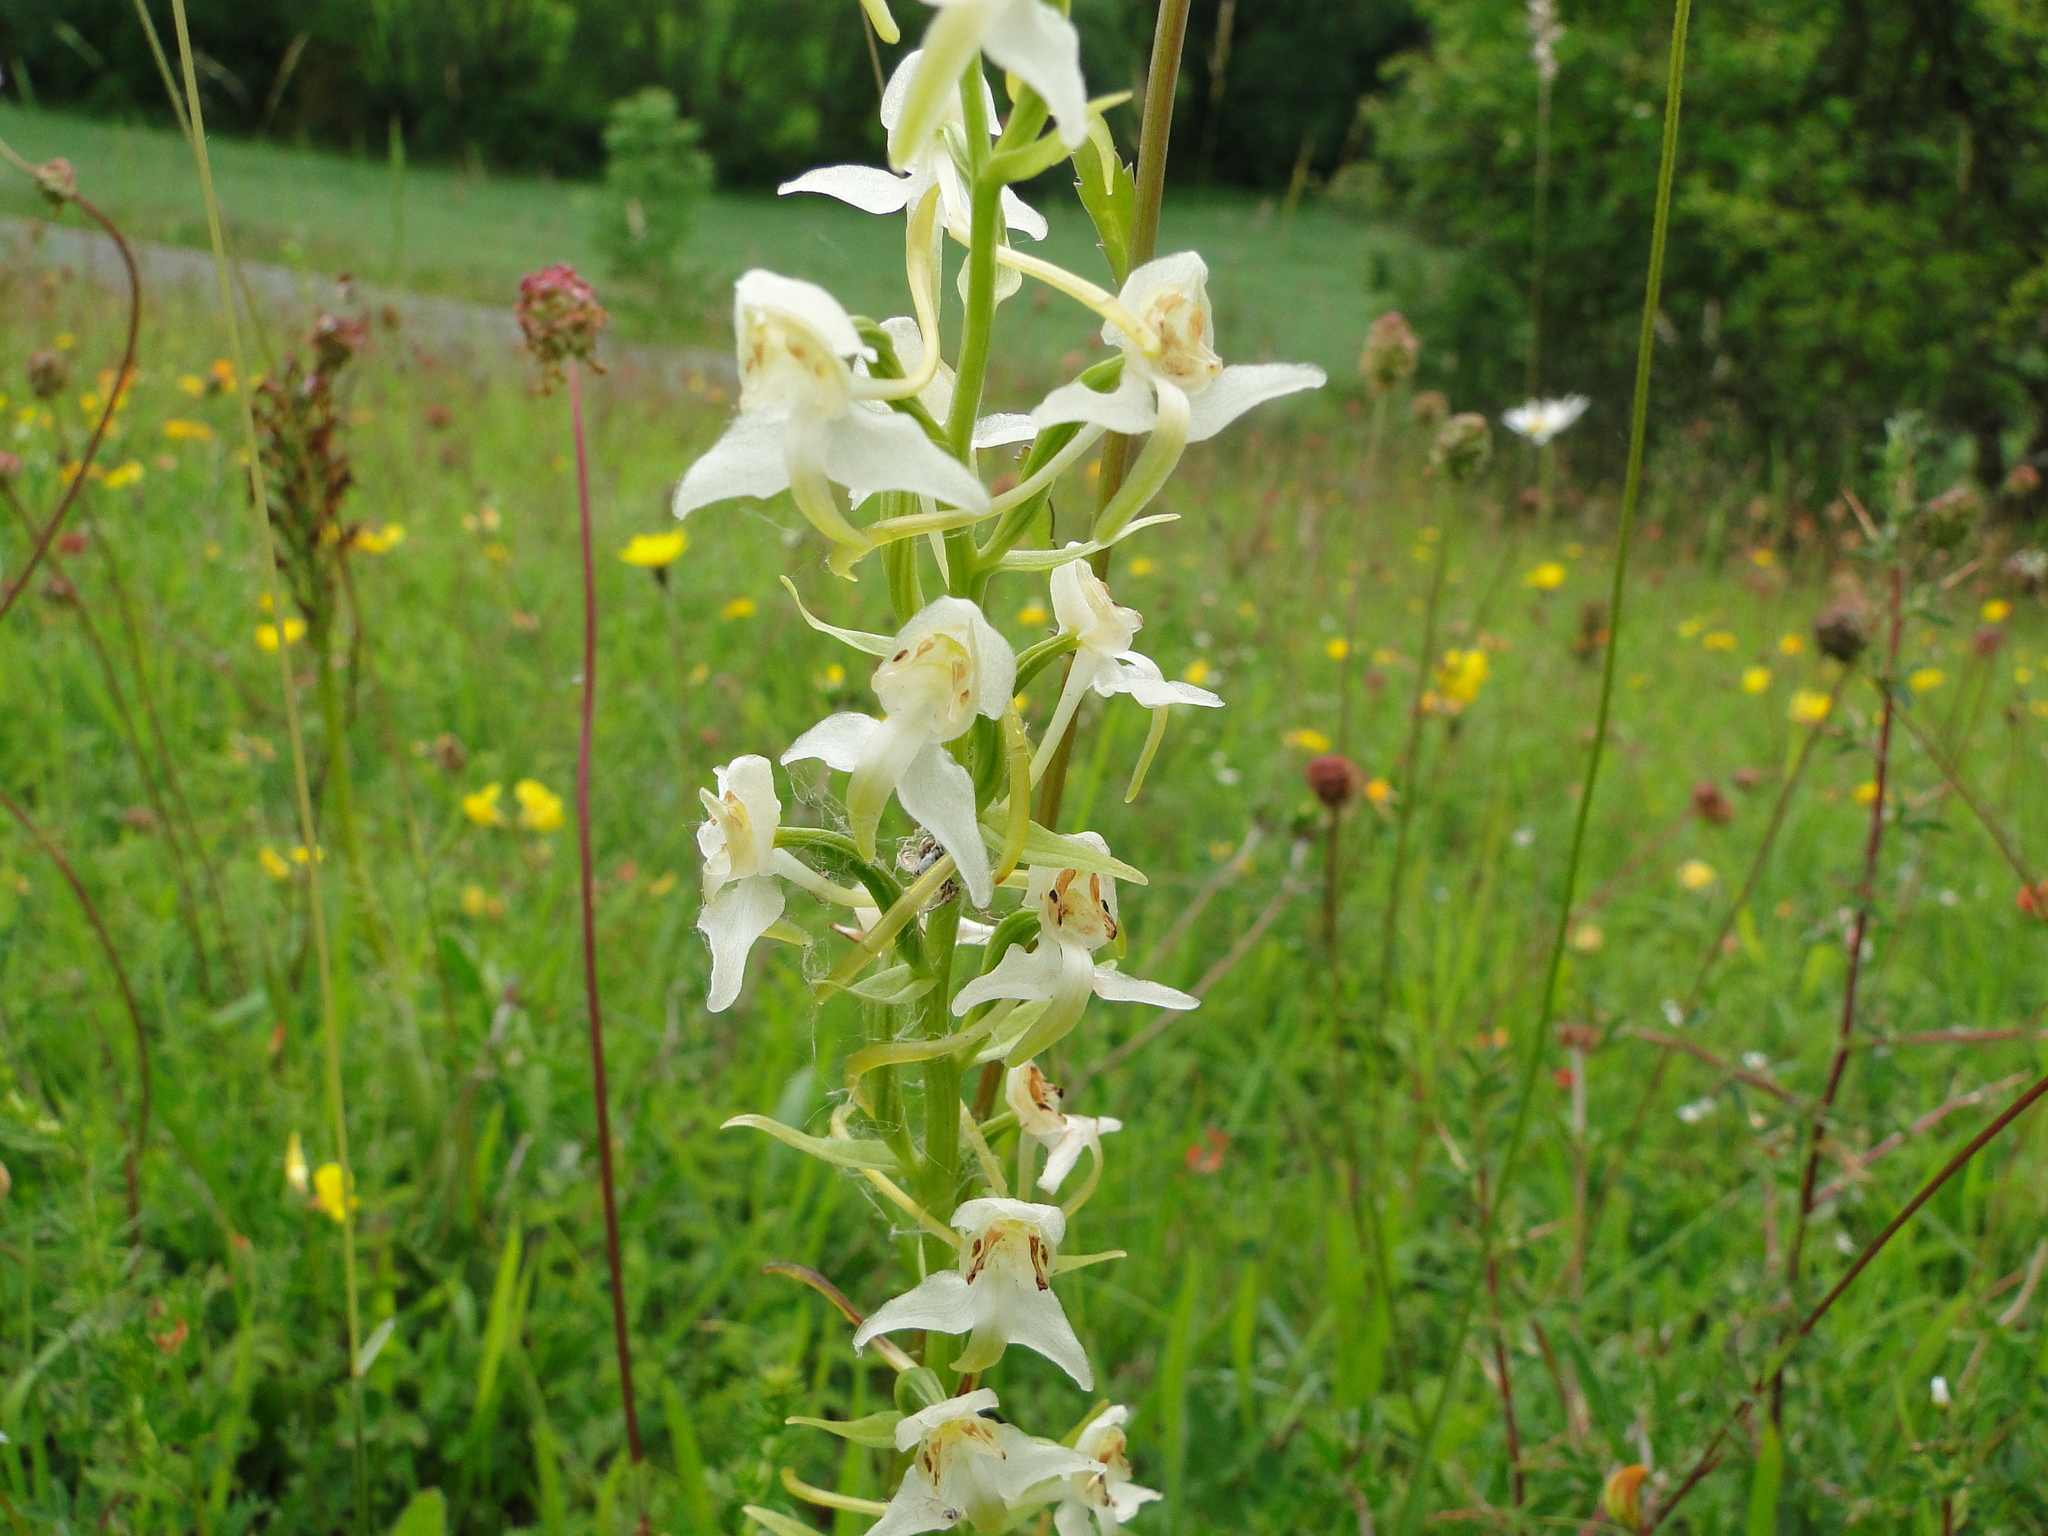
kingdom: Plantae
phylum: Tracheophyta
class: Liliopsida
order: Asparagales
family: Orchidaceae
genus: Platanthera
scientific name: Platanthera chlorantha
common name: Greater butterfly-orchid
